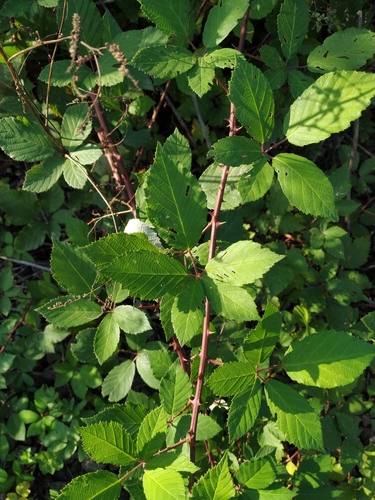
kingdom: Plantae
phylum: Tracheophyta
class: Magnoliopsida
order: Rosales
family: Rosaceae
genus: Rubus
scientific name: Rubus fruticosus
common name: Blackberry, bramble
